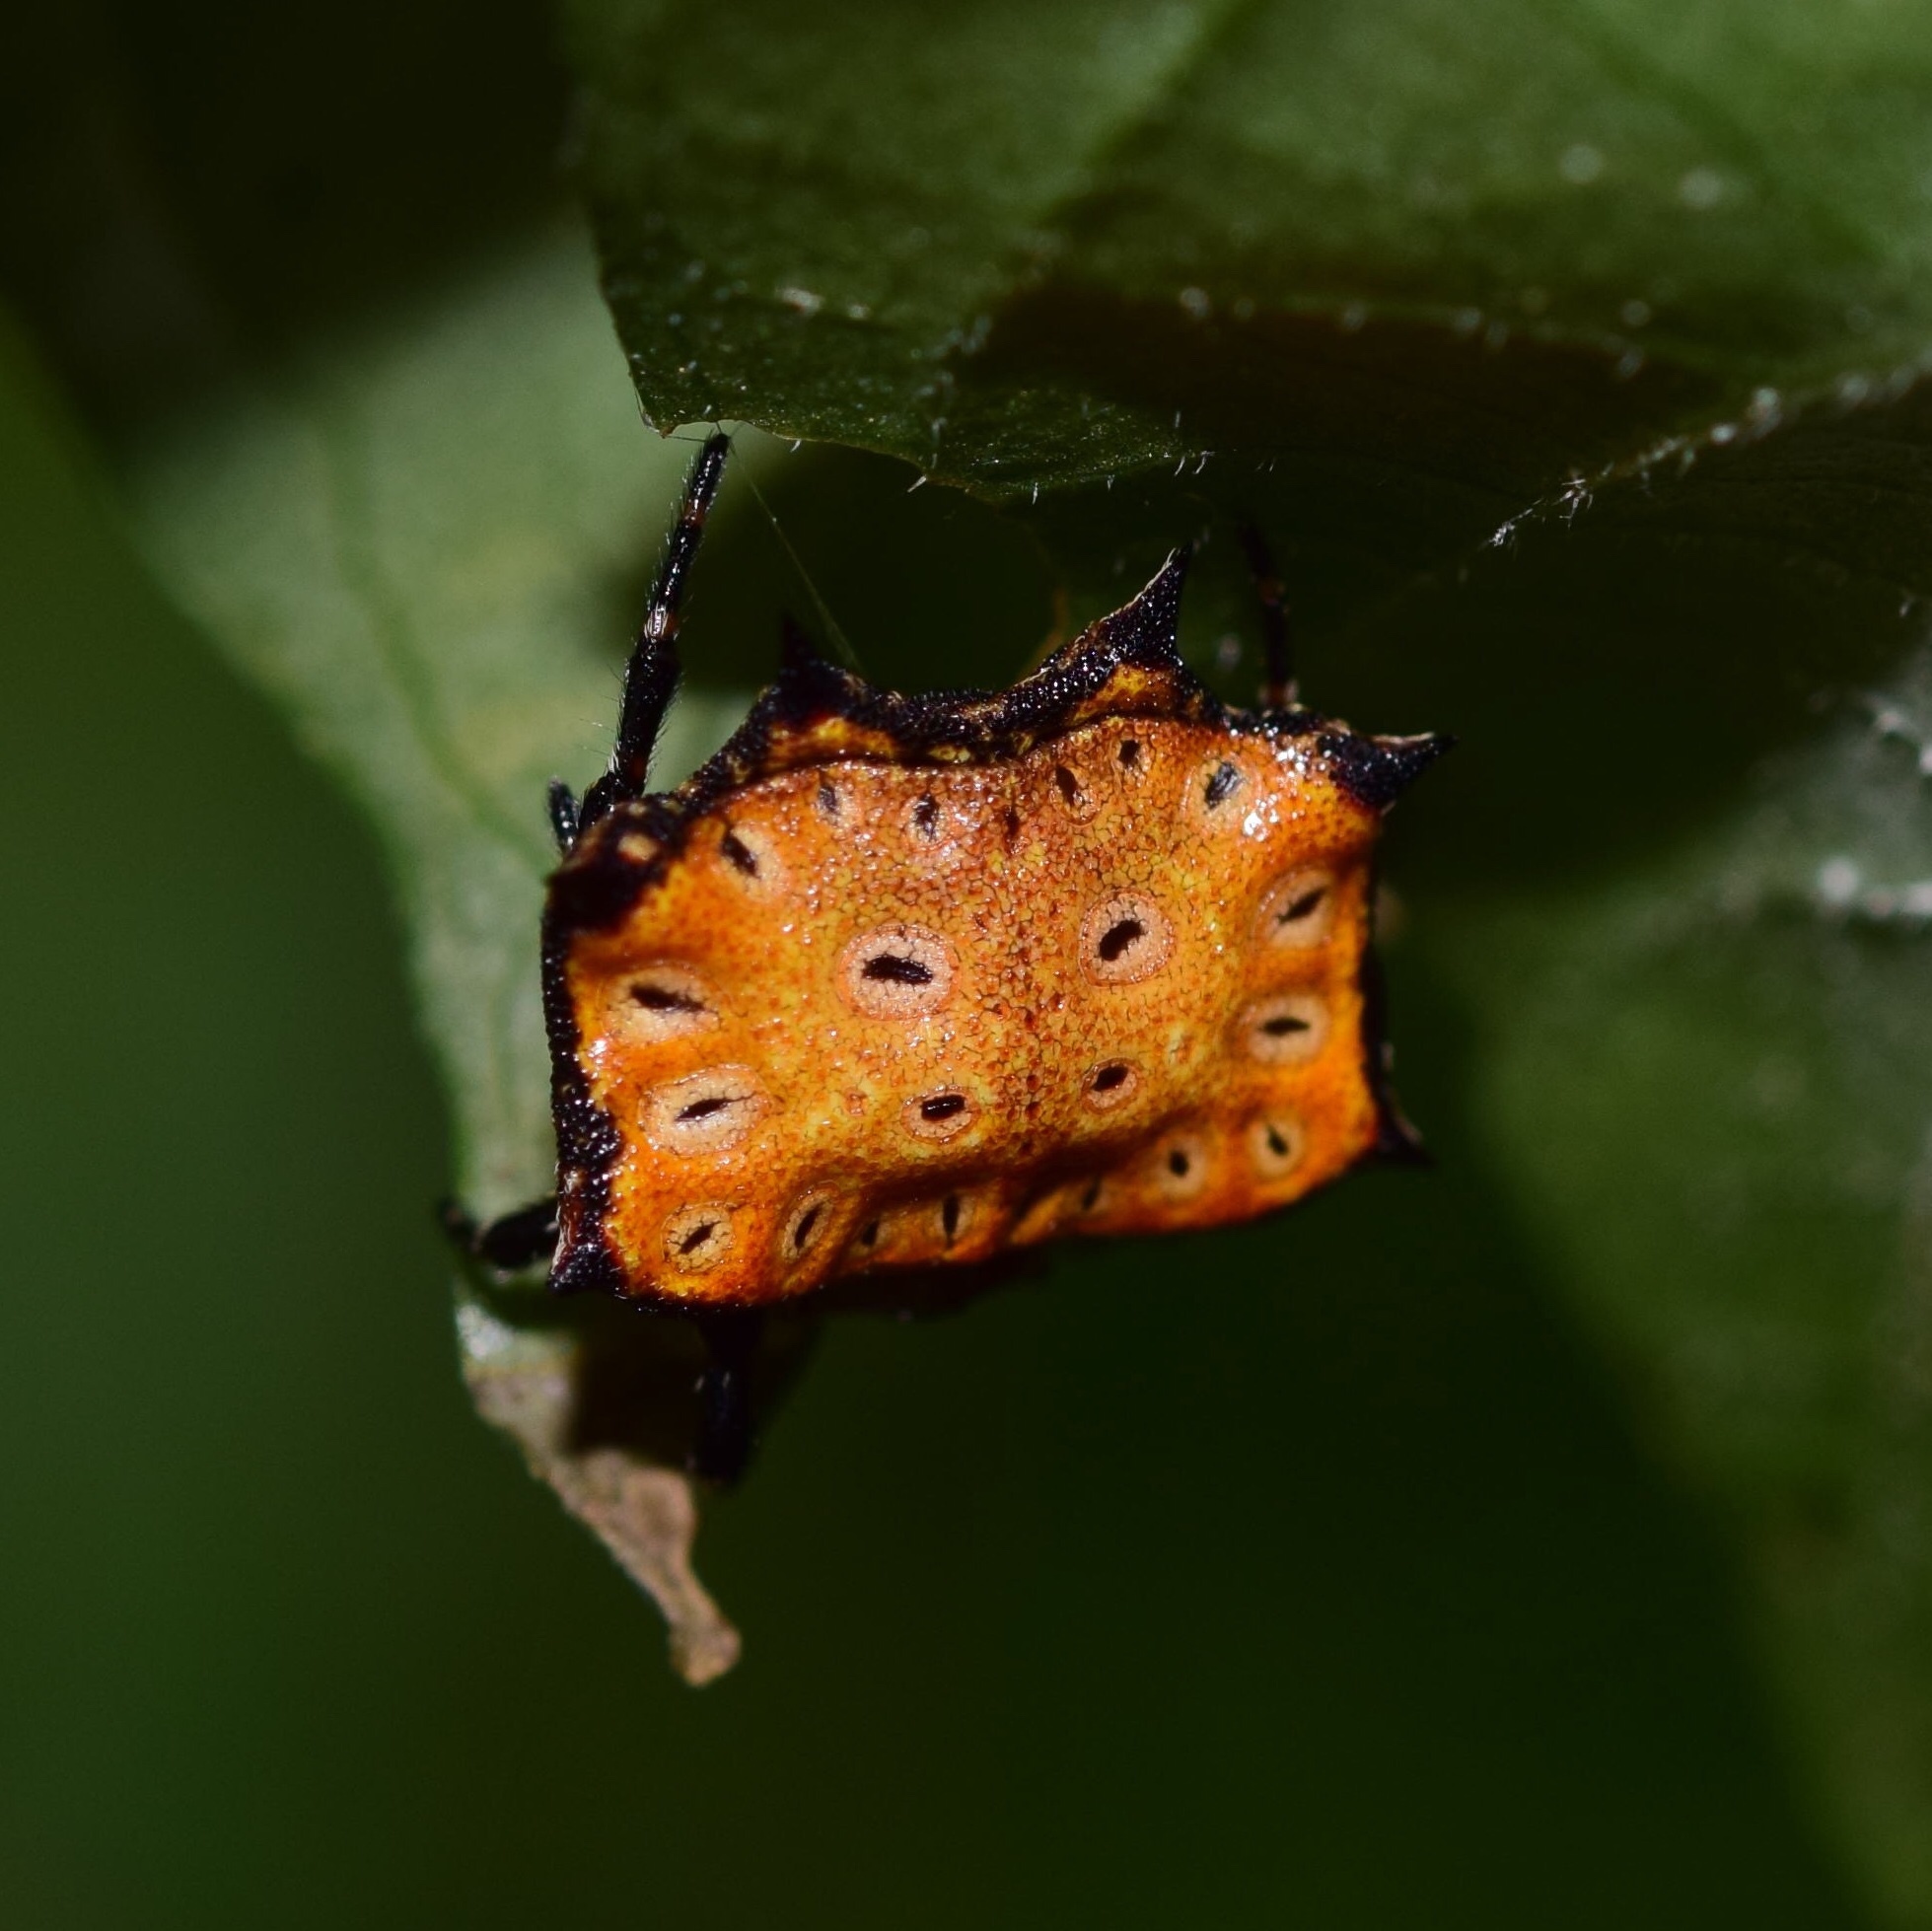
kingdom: Animalia
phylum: Arthropoda
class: Arachnida
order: Araneae
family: Araneidae
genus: Isoxya
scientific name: Isoxya tabulata
